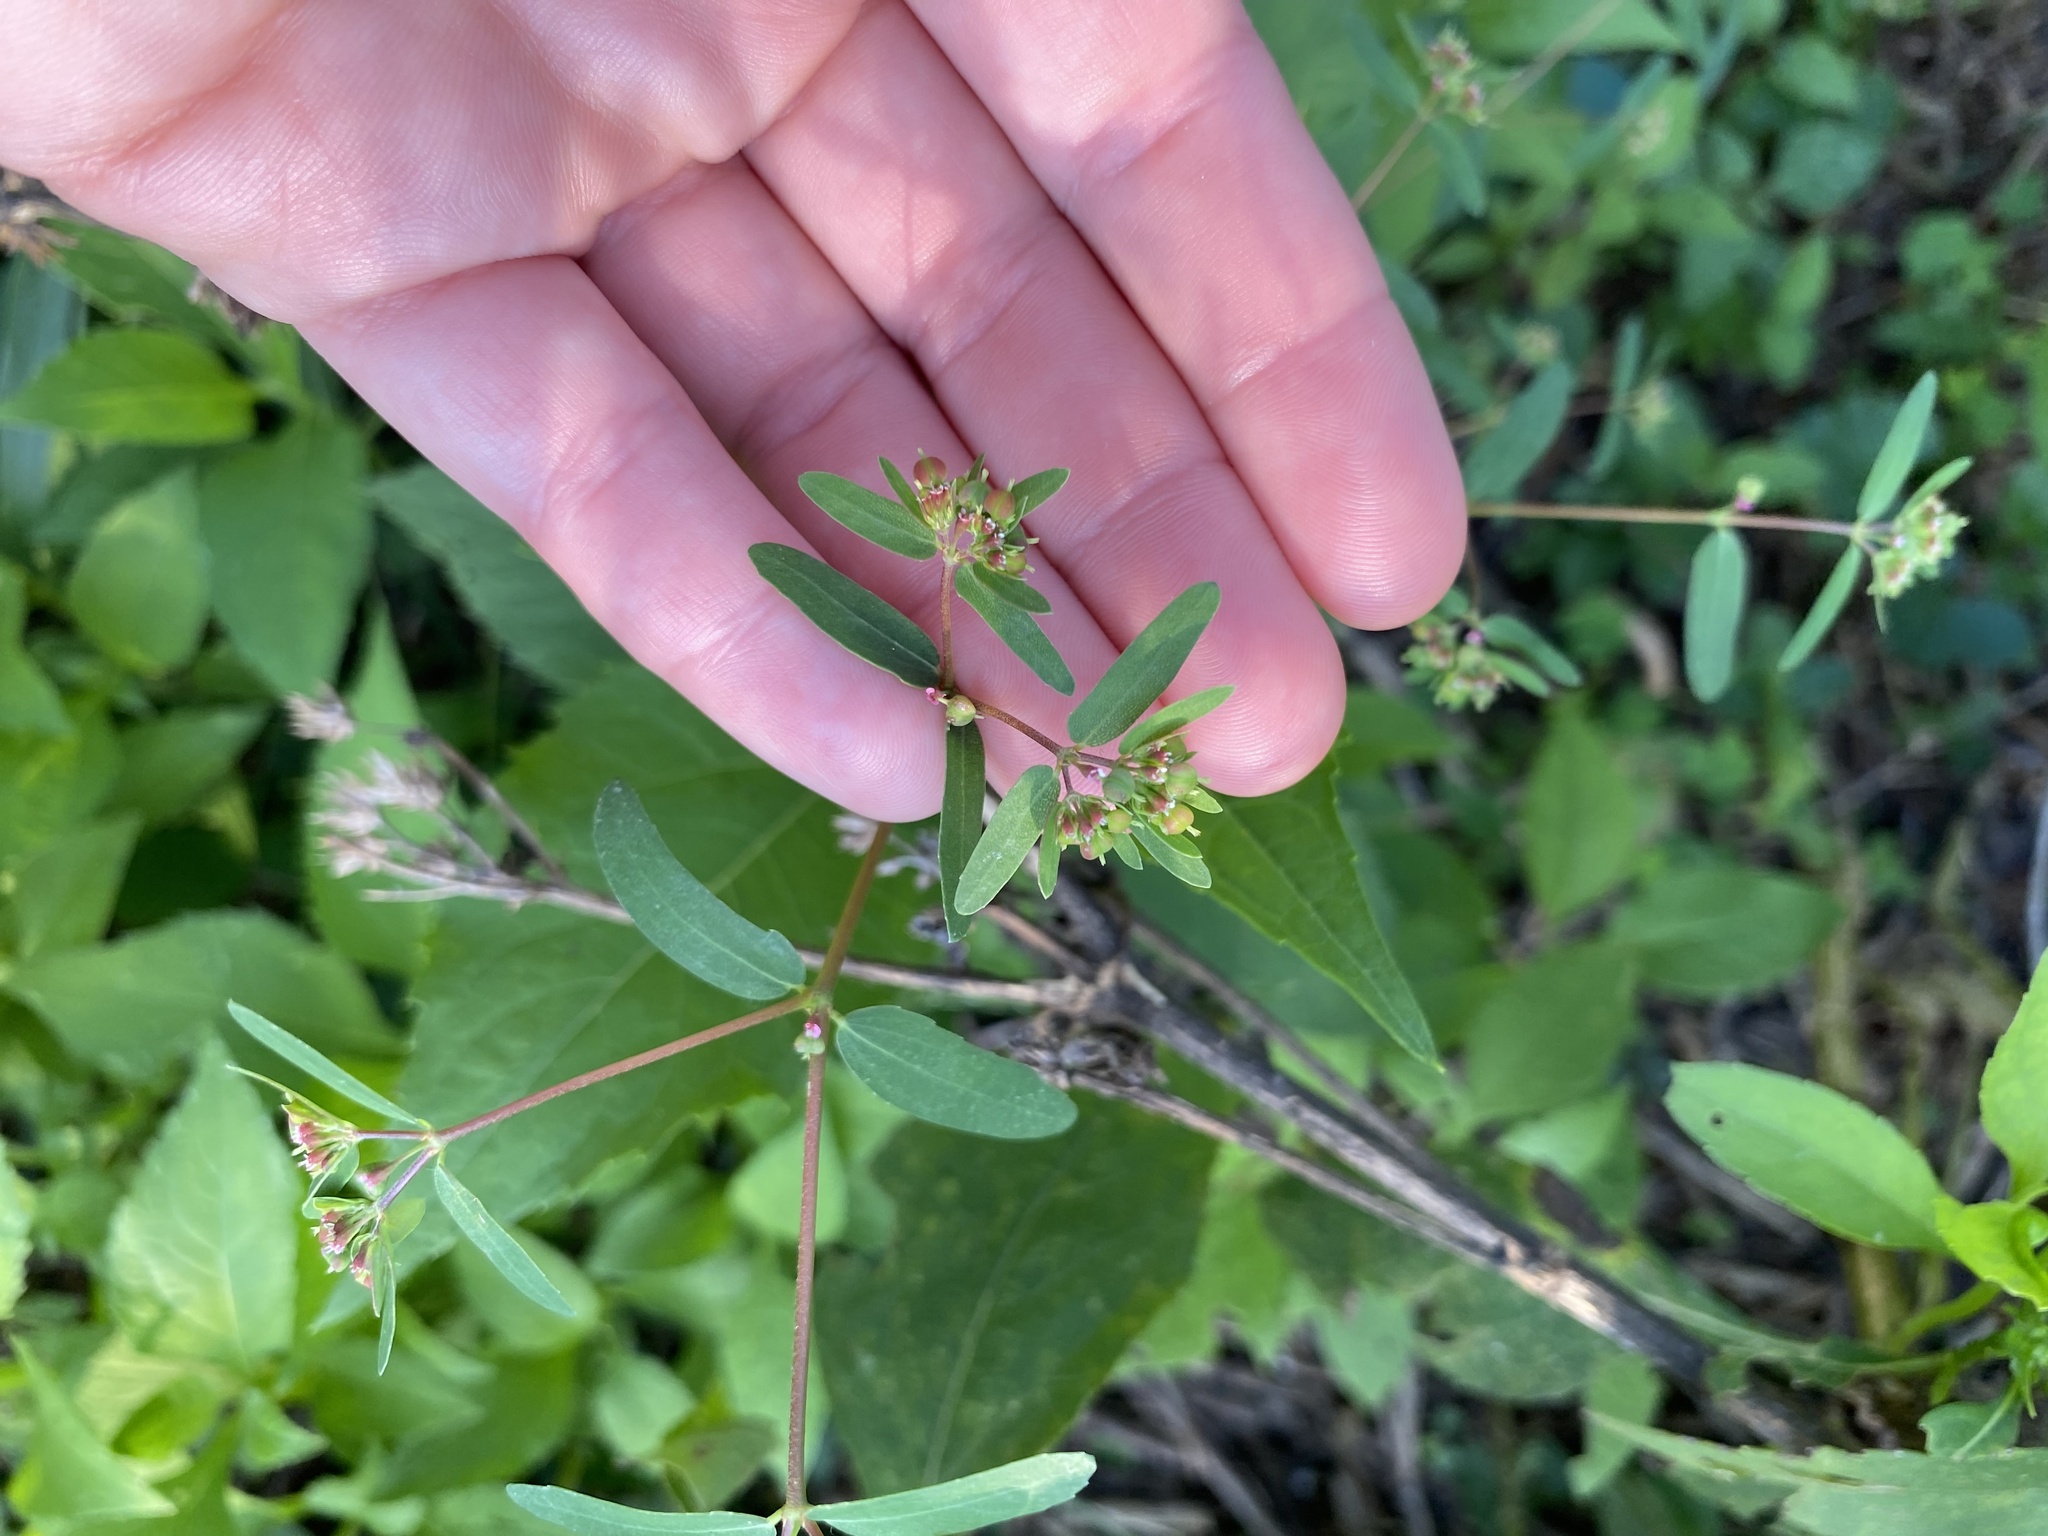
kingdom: Plantae
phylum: Tracheophyta
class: Magnoliopsida
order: Malpighiales
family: Euphorbiaceae
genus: Euphorbia
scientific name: Euphorbia nutans
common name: Eyebane
